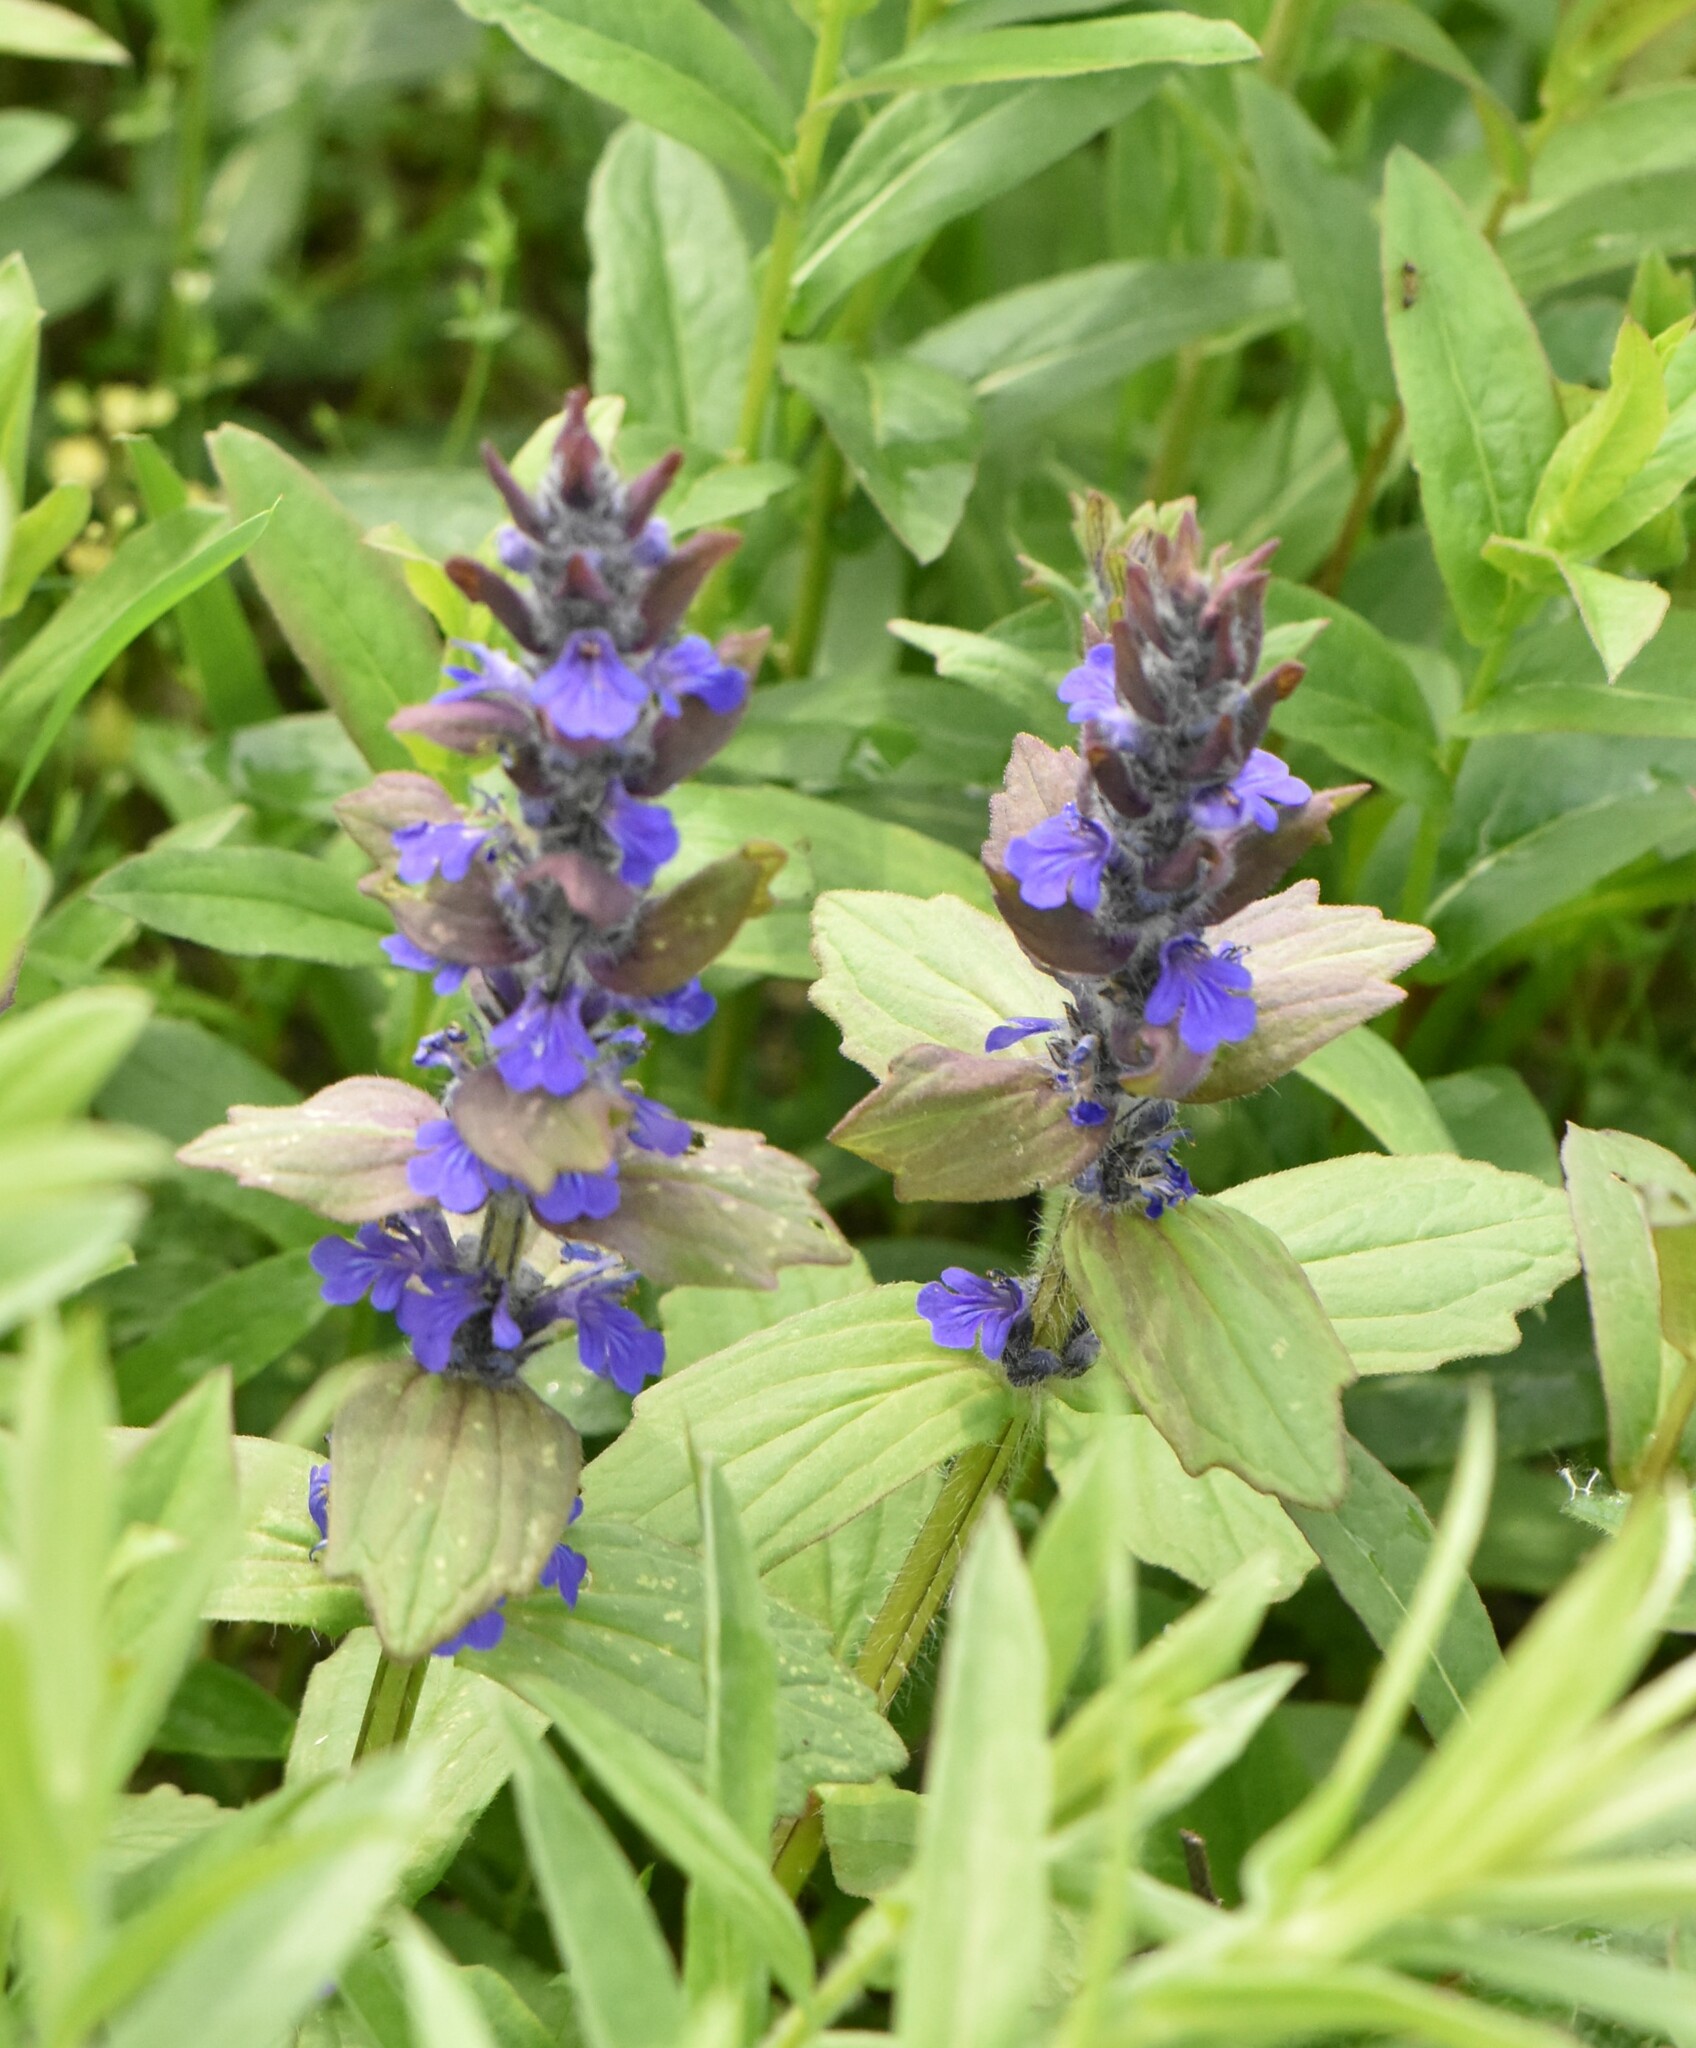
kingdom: Plantae
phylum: Tracheophyta
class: Magnoliopsida
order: Lamiales
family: Lamiaceae
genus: Ajuga
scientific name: Ajuga genevensis
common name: Blue bugle
